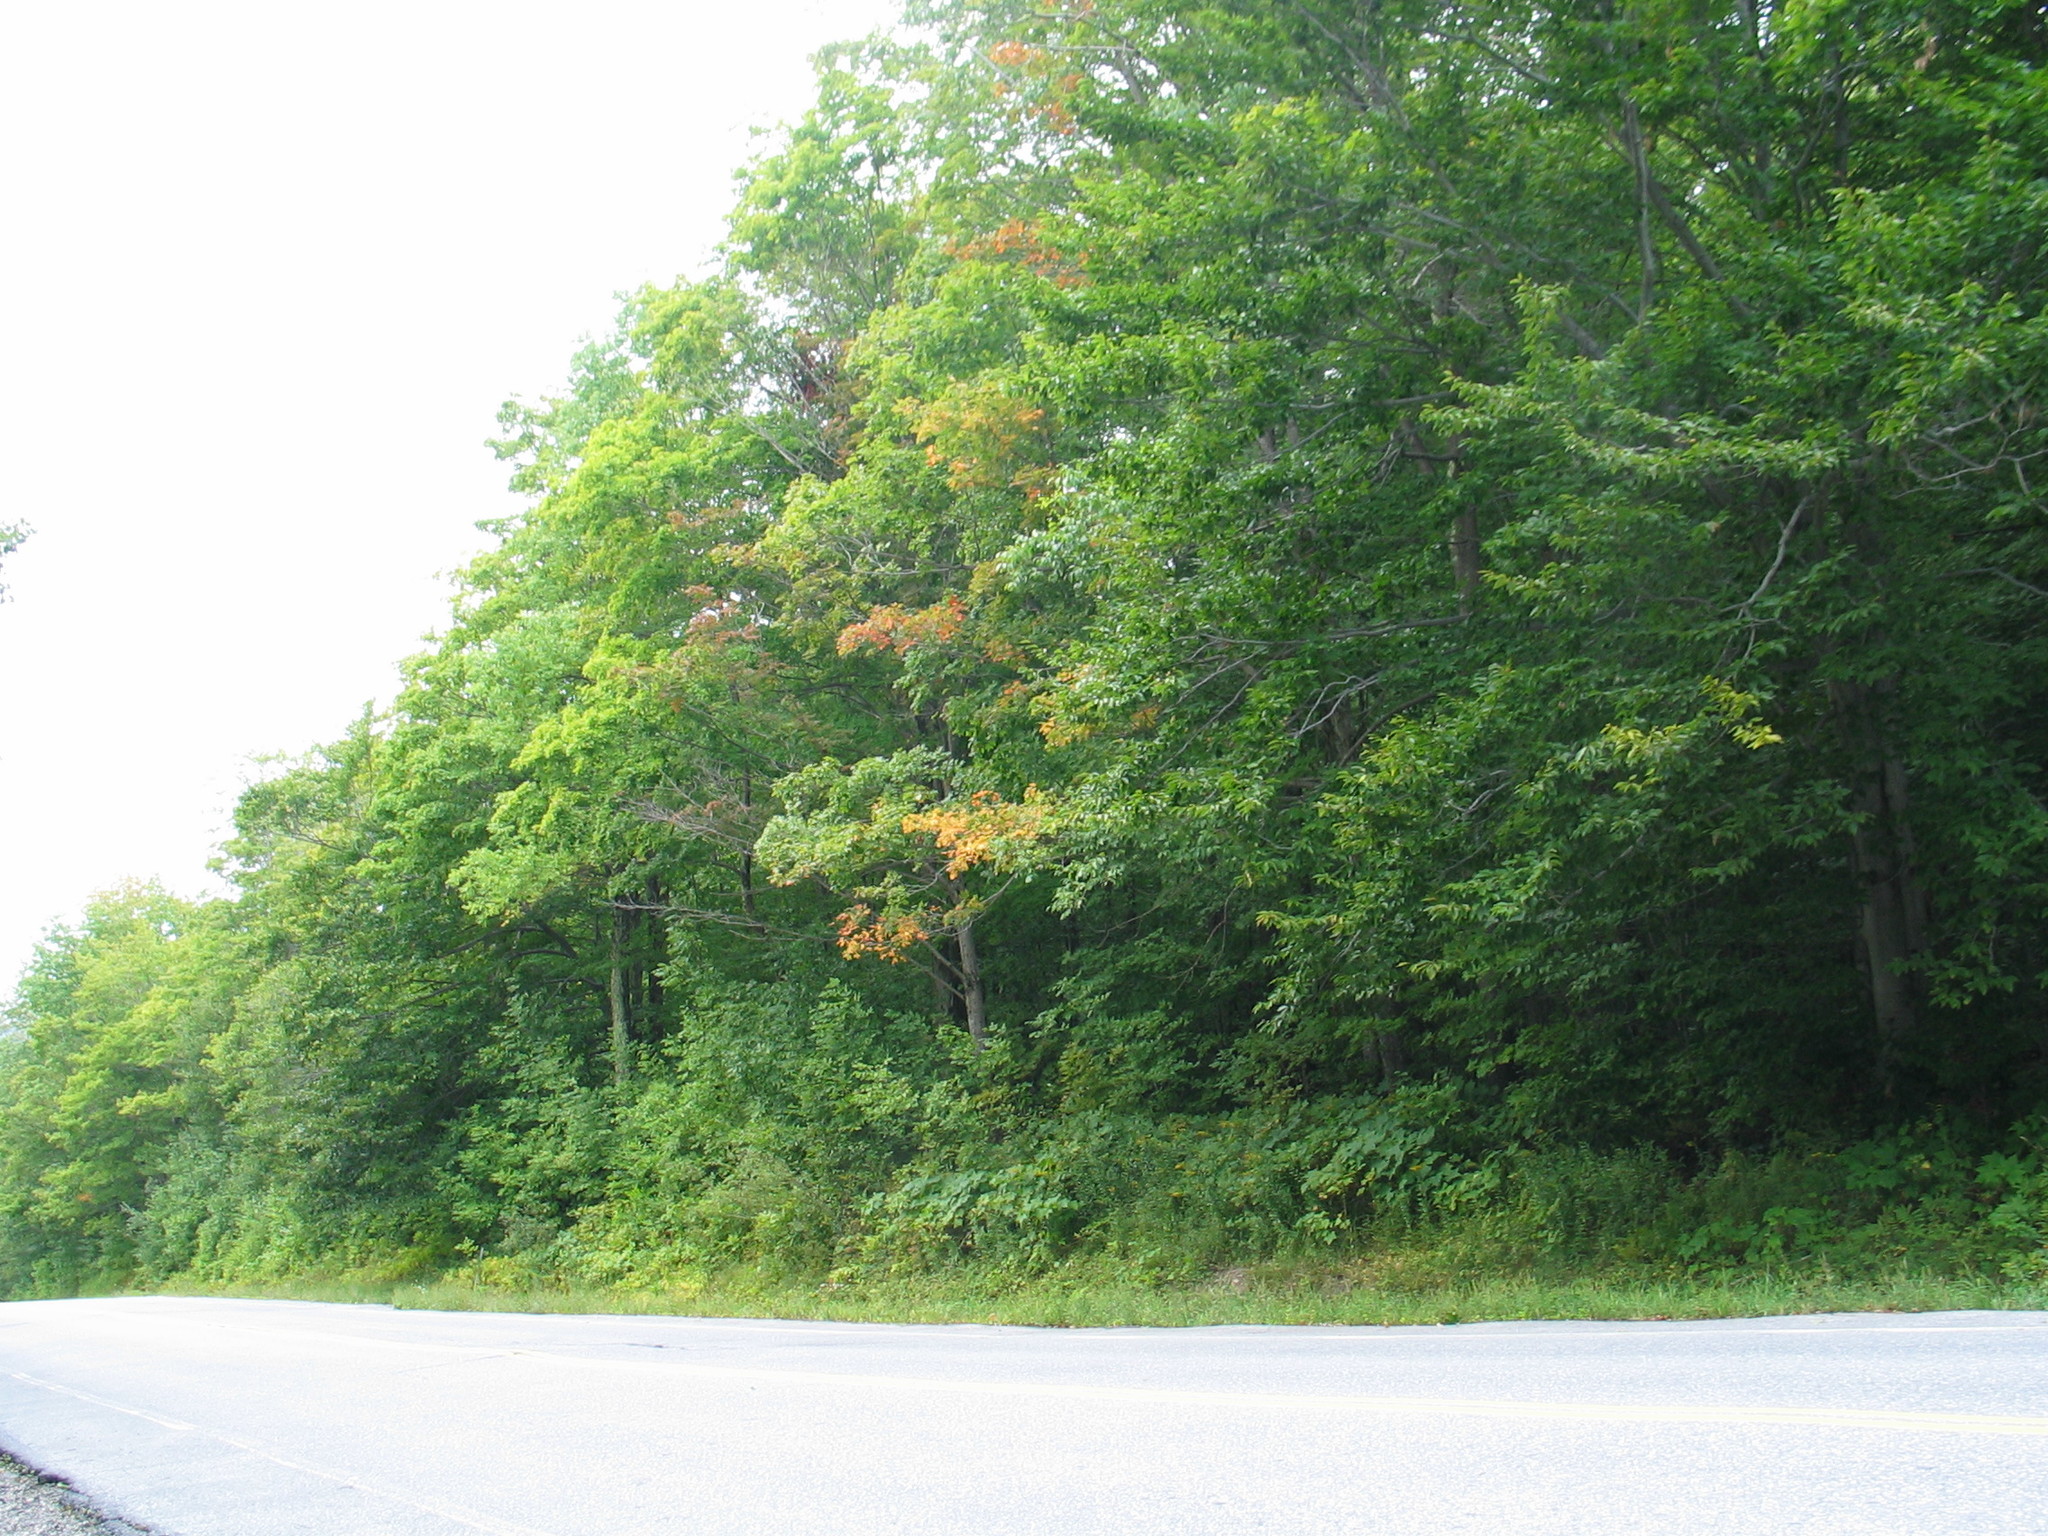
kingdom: Plantae
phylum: Tracheophyta
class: Magnoliopsida
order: Sapindales
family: Sapindaceae
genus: Acer
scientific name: Acer saccharum
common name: Sugar maple
